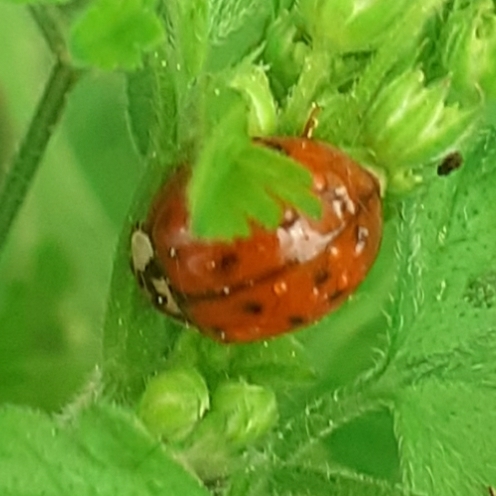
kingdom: Animalia
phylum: Arthropoda
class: Insecta
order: Coleoptera
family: Coccinellidae
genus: Harmonia
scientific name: Harmonia axyridis
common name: Harlequin ladybird
